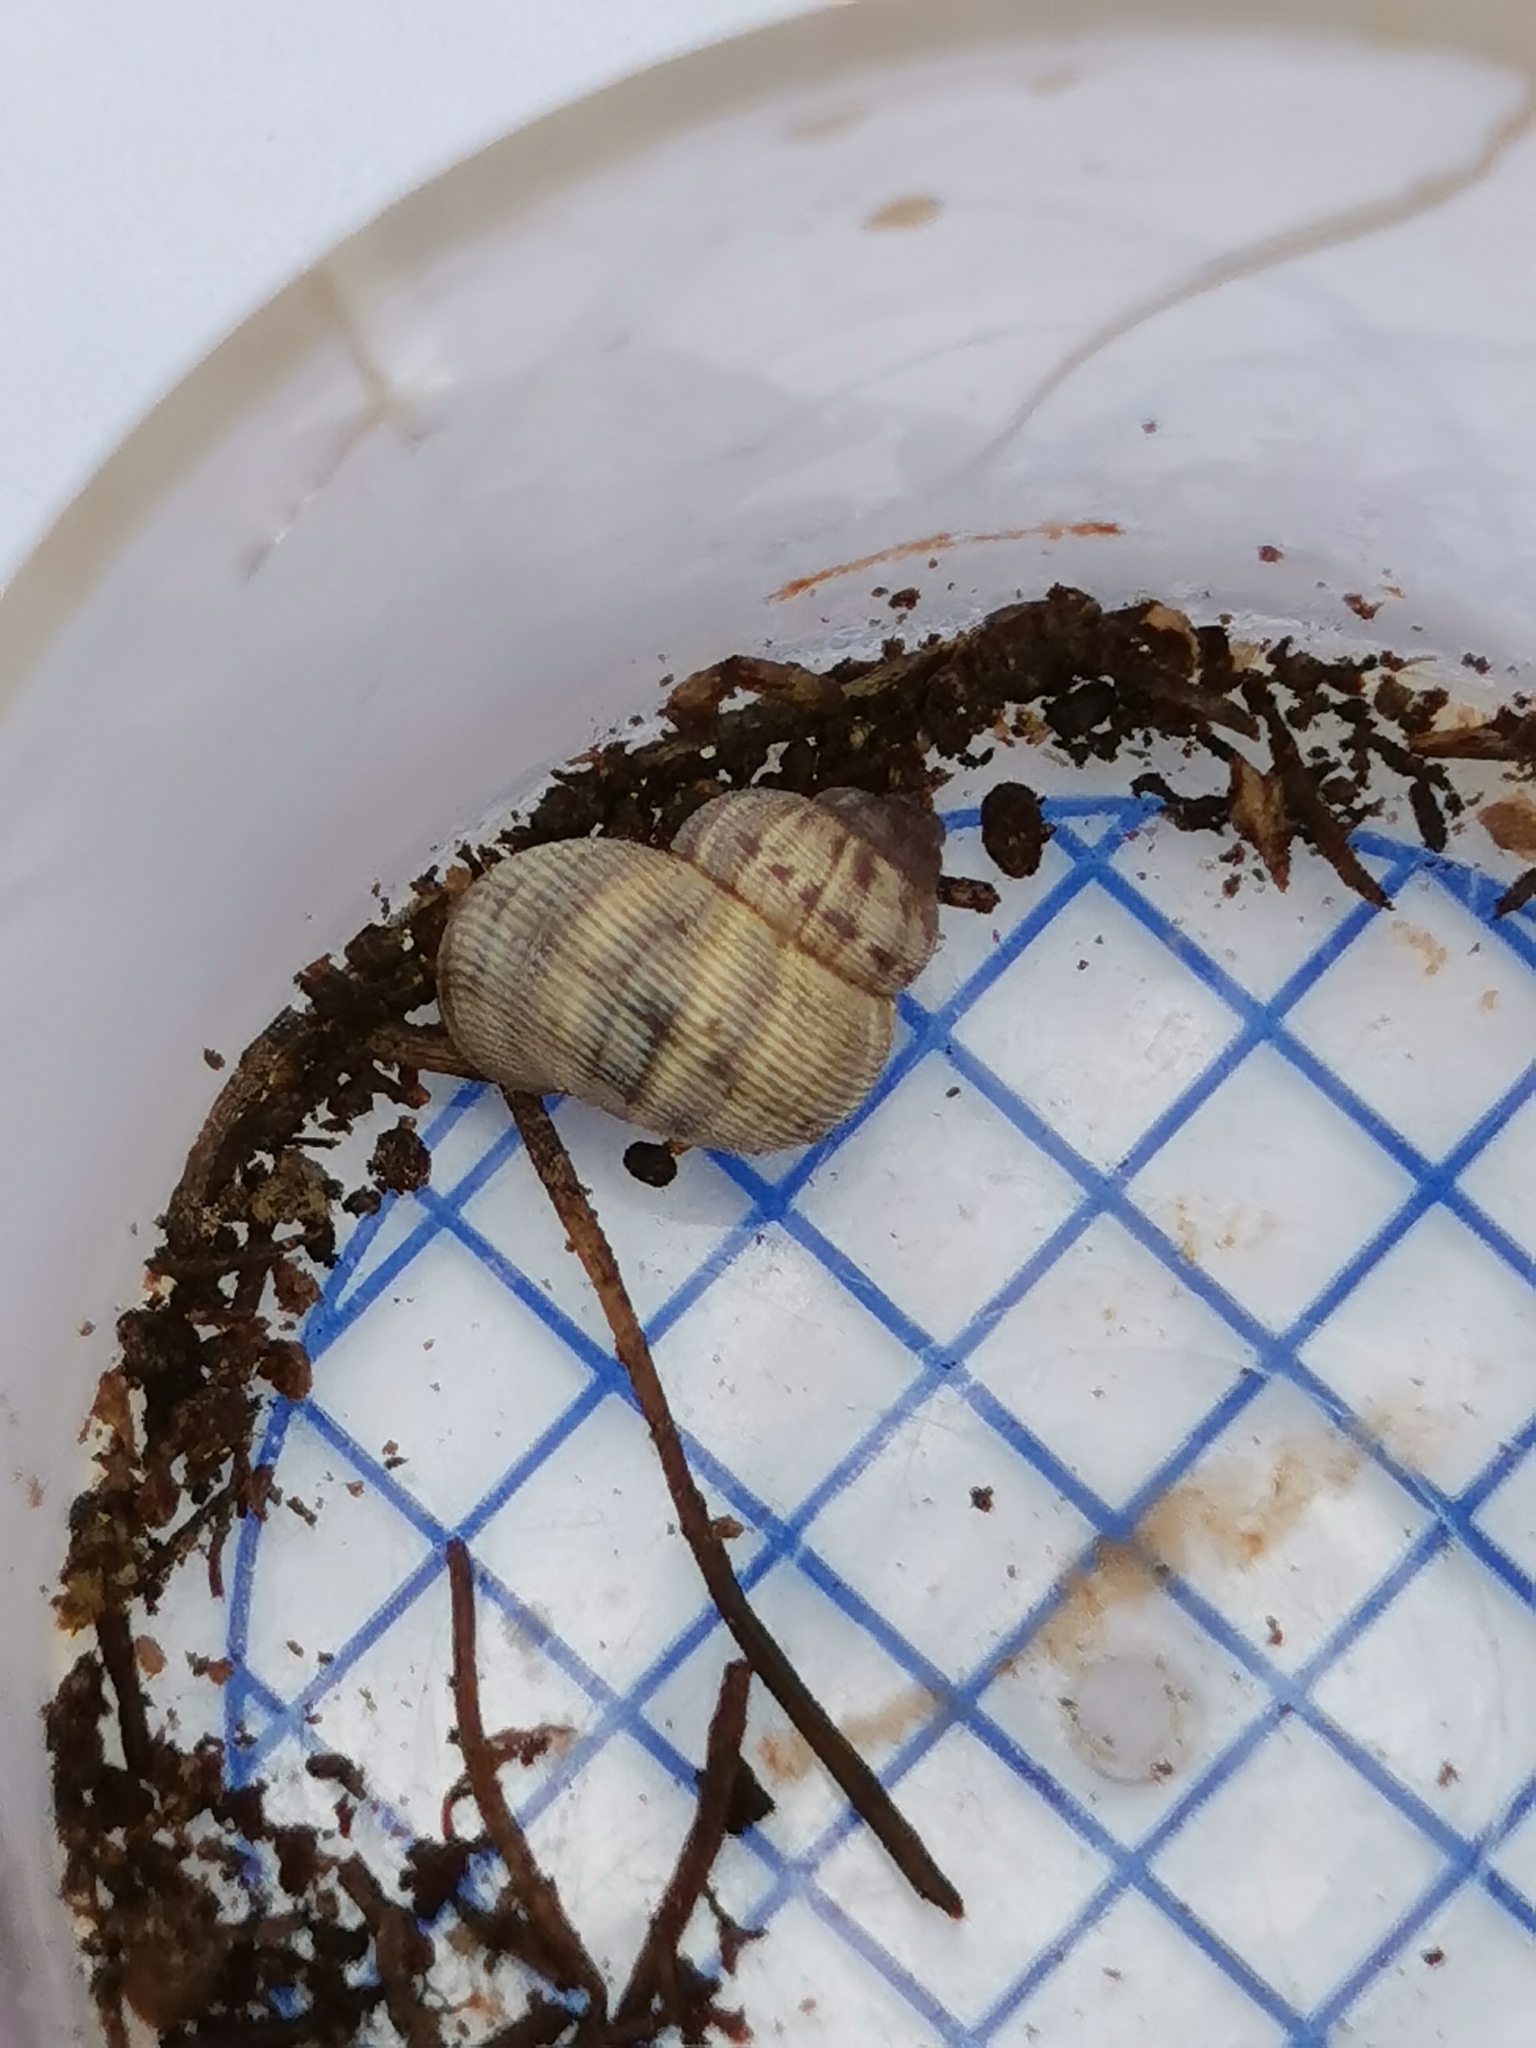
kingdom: Animalia
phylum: Mollusca
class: Gastropoda
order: Littorinimorpha
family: Pomatiidae
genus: Pomatias
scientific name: Pomatias elegans
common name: Red-mouthed snail
